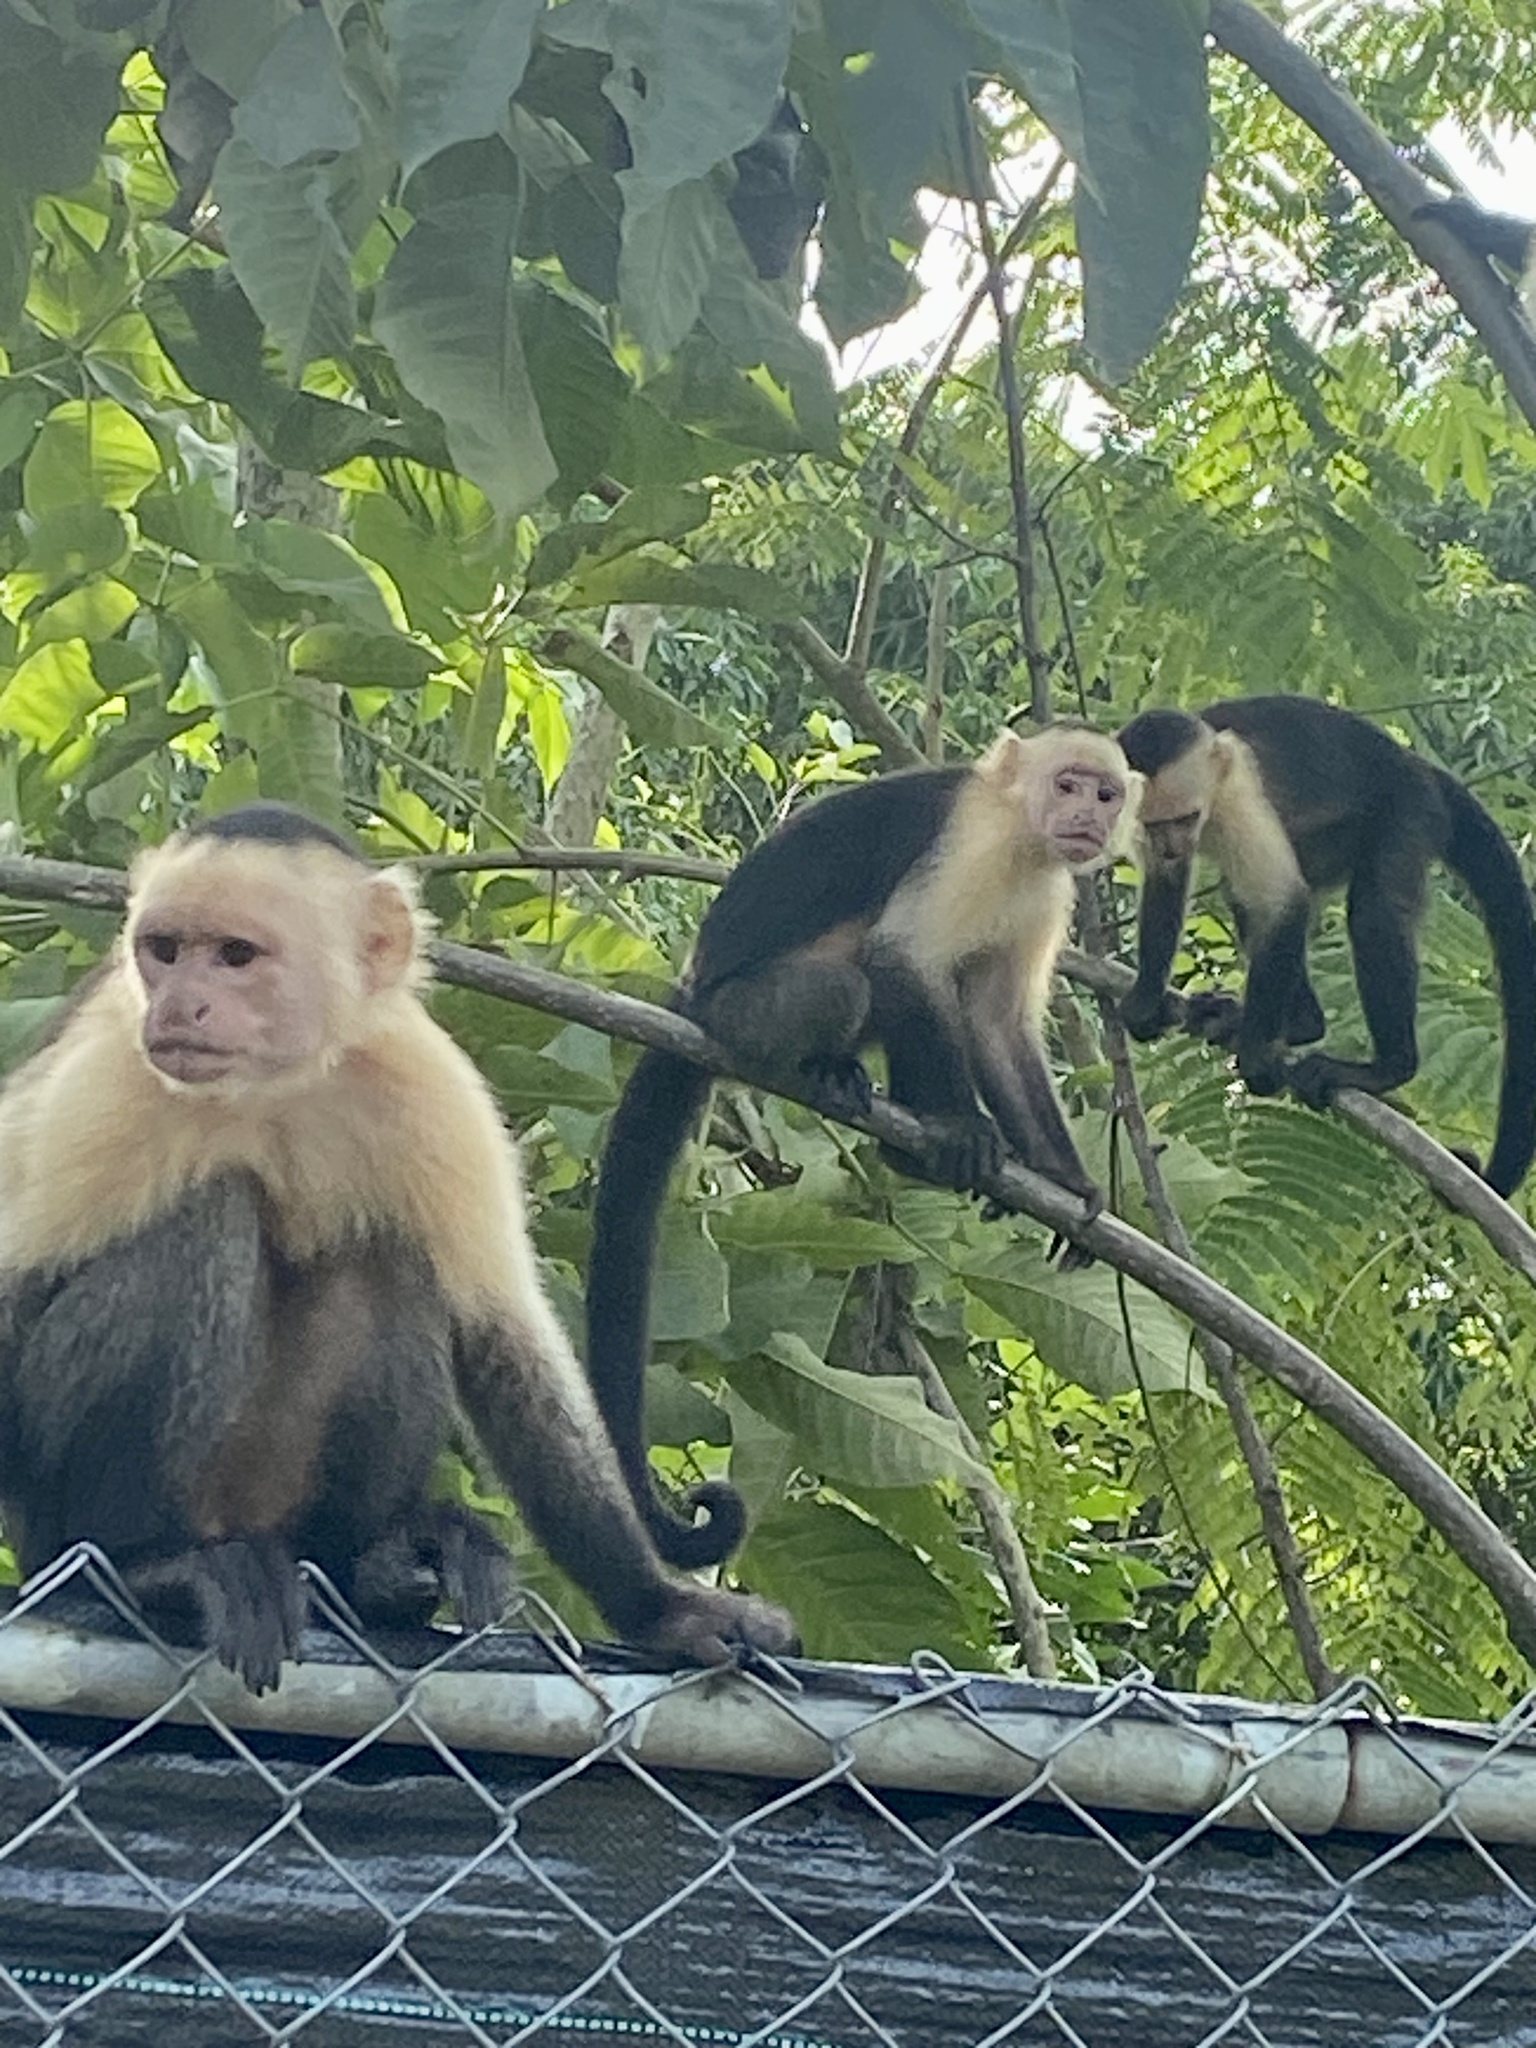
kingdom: Animalia
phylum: Chordata
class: Mammalia
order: Primates
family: Cebidae
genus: Cebus
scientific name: Cebus imitator
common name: Panamanian white-faced capuchin
